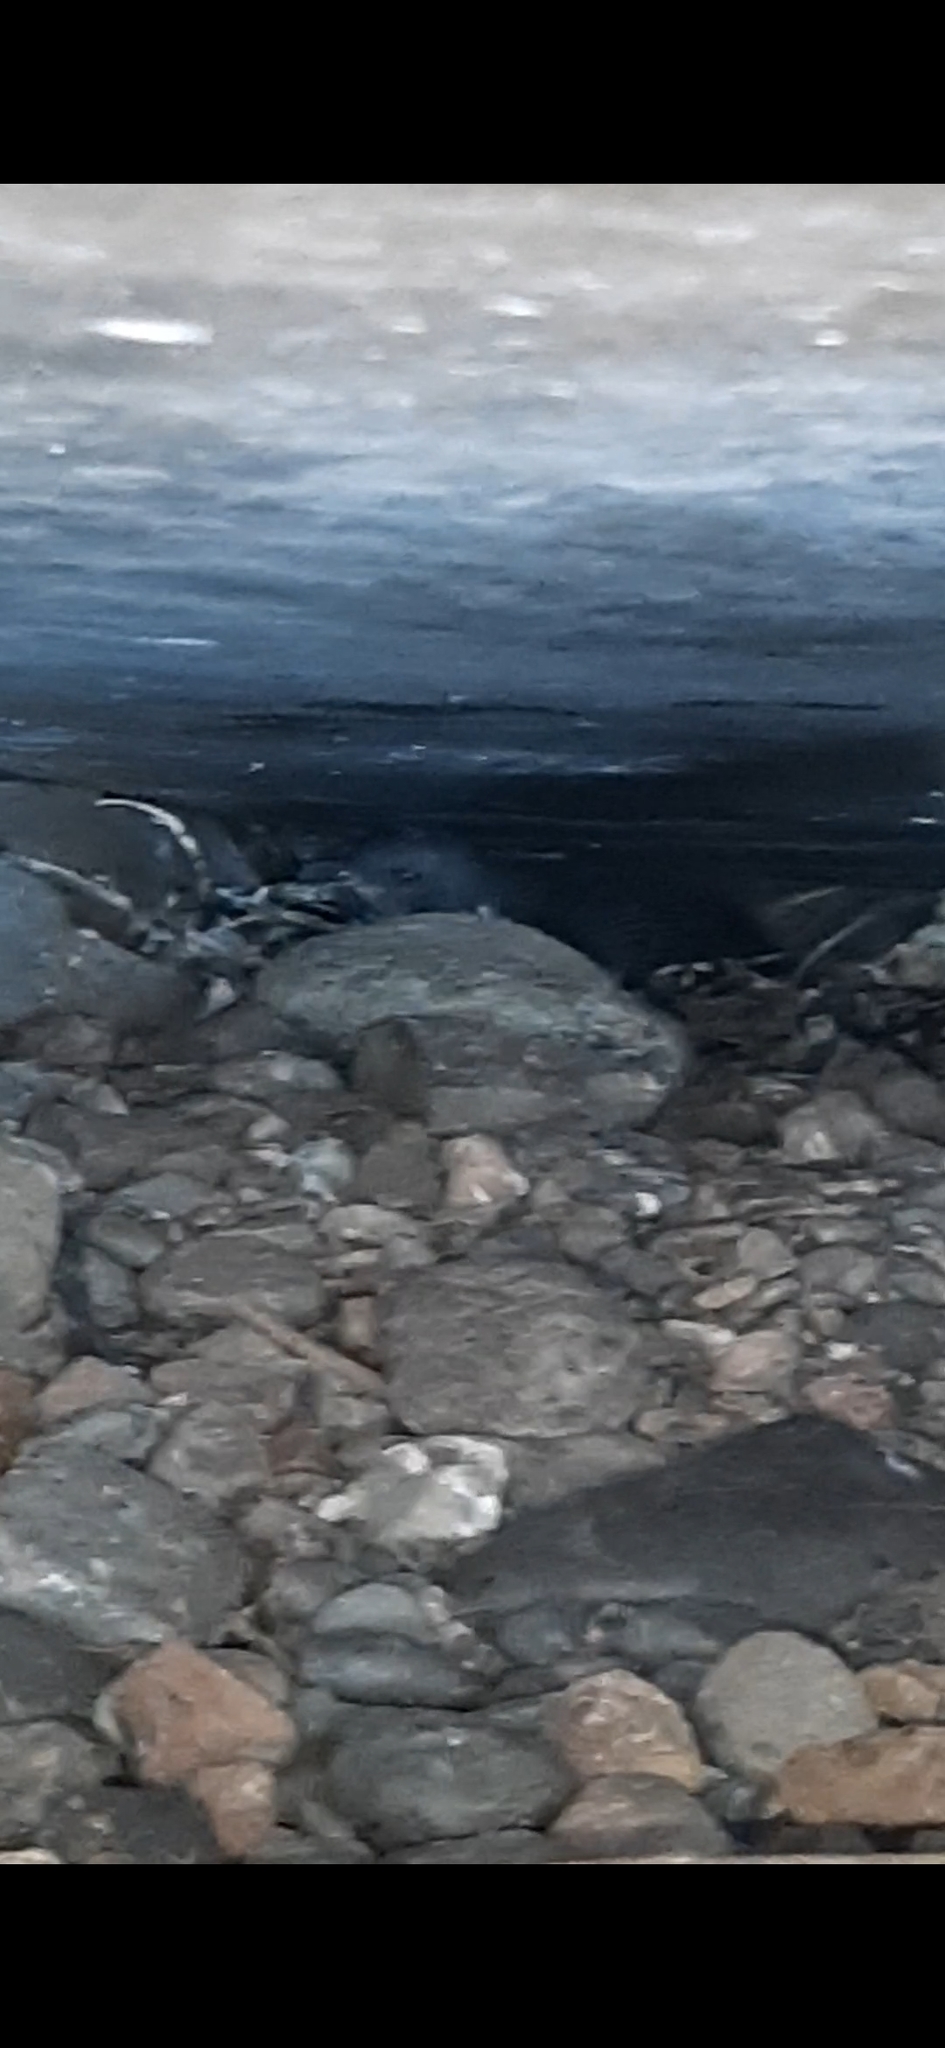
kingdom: Animalia
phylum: Chordata
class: Aves
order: Sphenisciformes
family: Spheniscidae
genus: Eudyptula
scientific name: Eudyptula minor
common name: Little penguin
